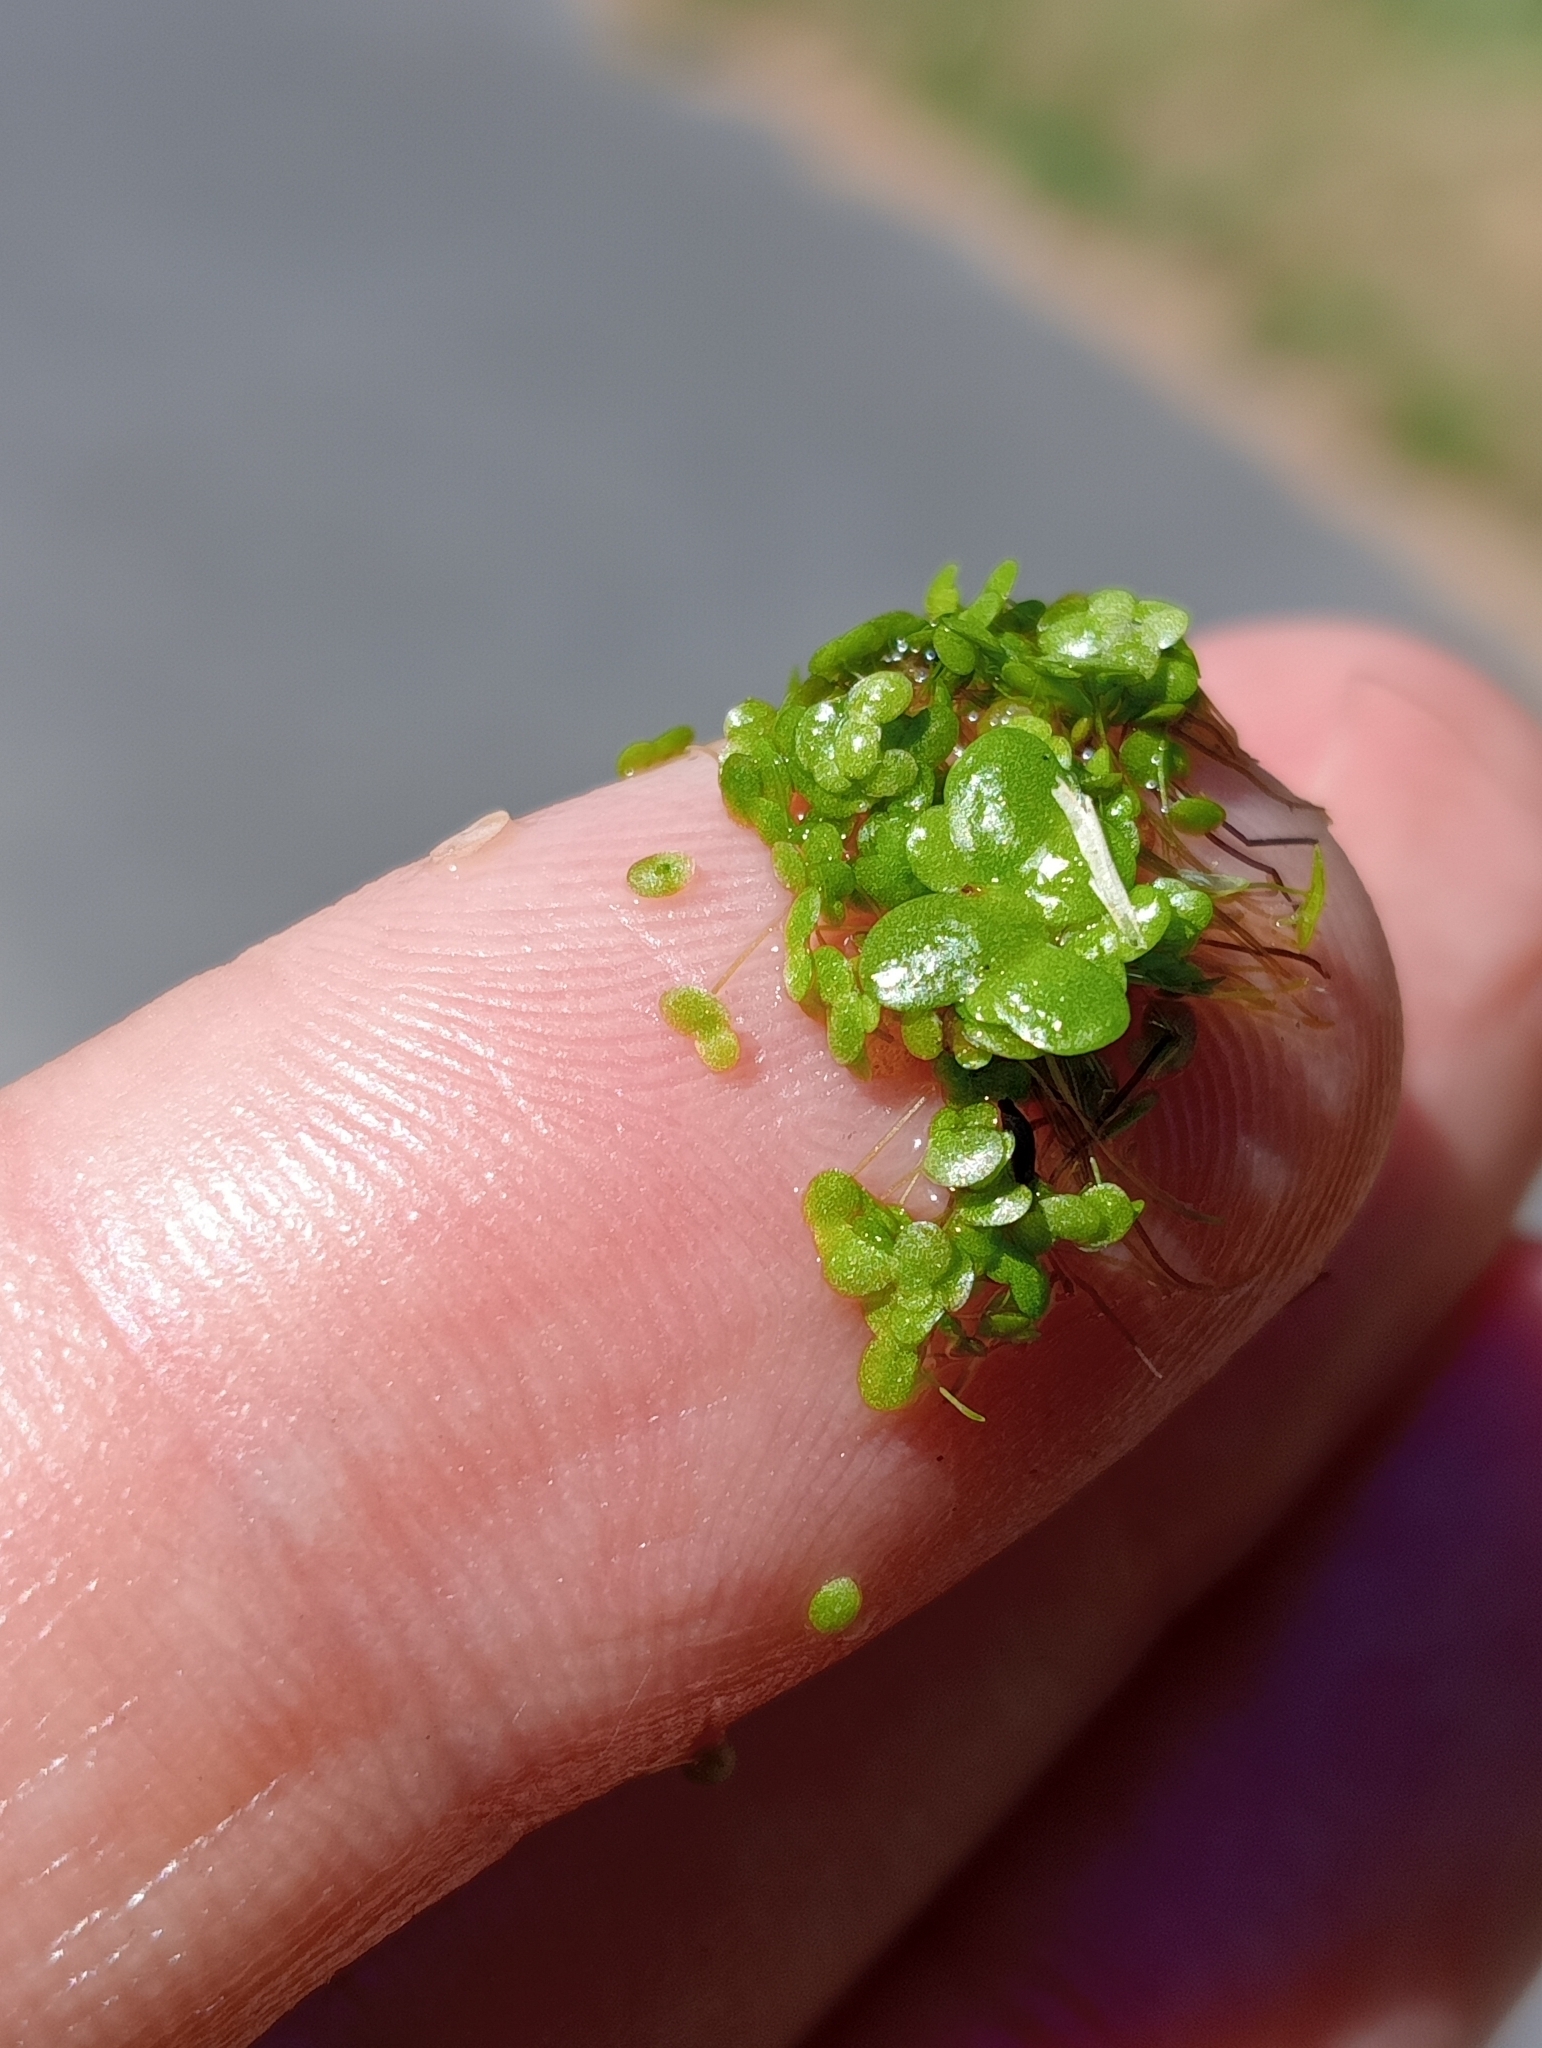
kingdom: Plantae
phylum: Tracheophyta
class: Liliopsida
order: Alismatales
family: Araceae
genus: Lemna
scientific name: Lemna disperma
